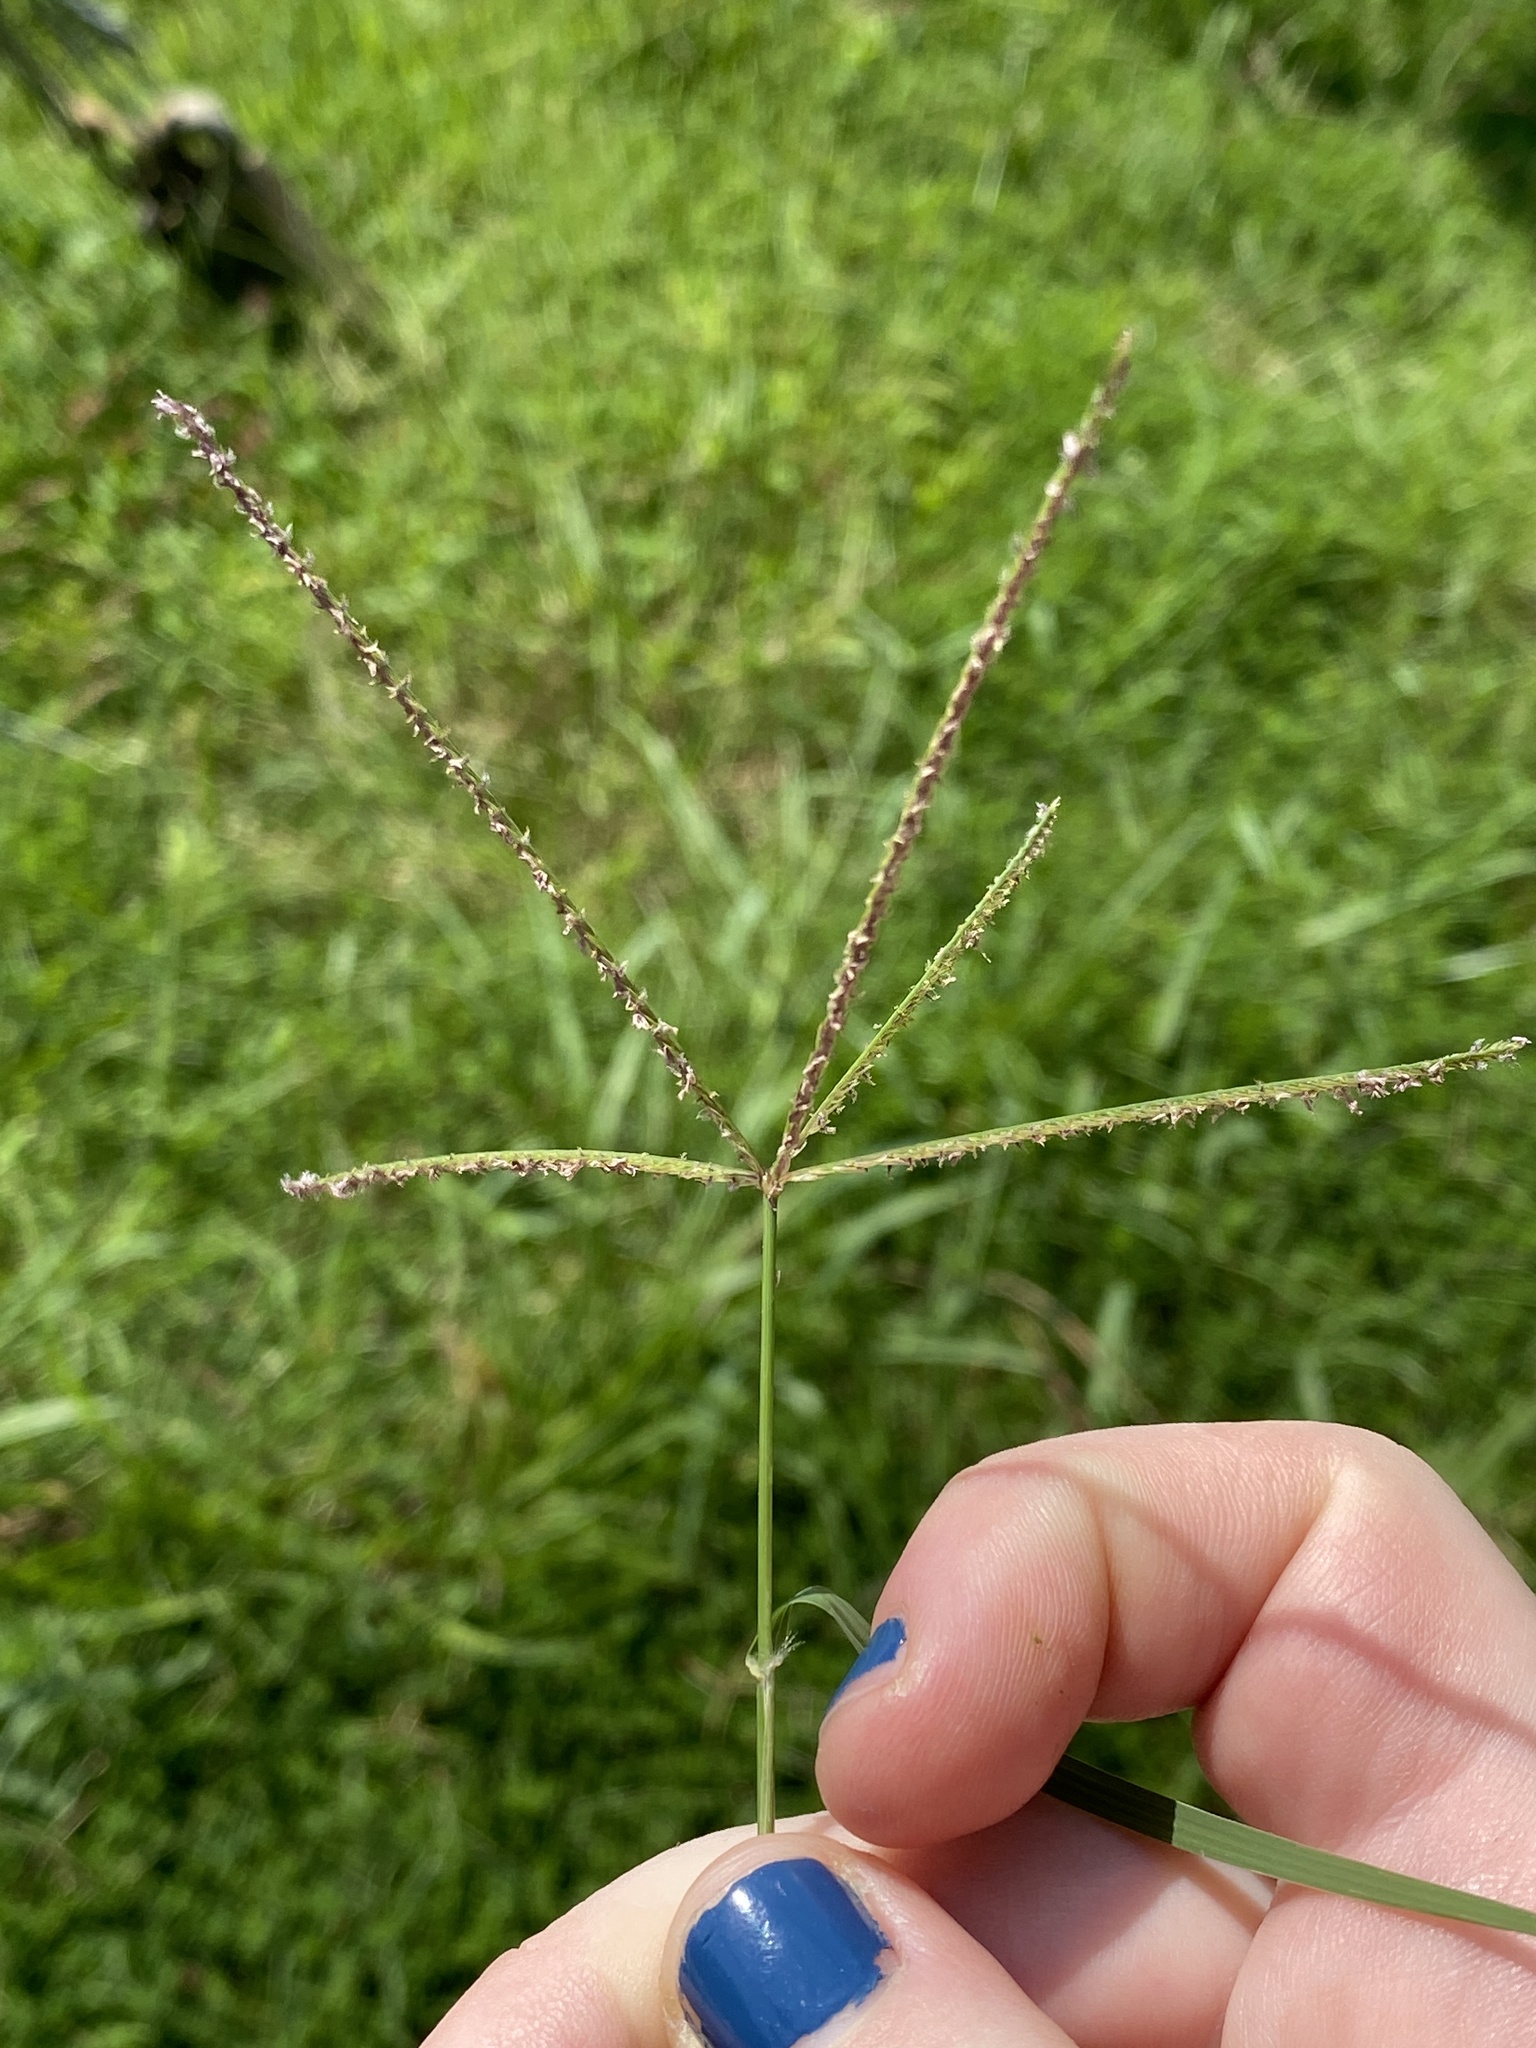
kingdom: Plantae
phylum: Tracheophyta
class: Liliopsida
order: Poales
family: Poaceae
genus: Cynodon
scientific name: Cynodon dactylon
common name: Bermuda grass
